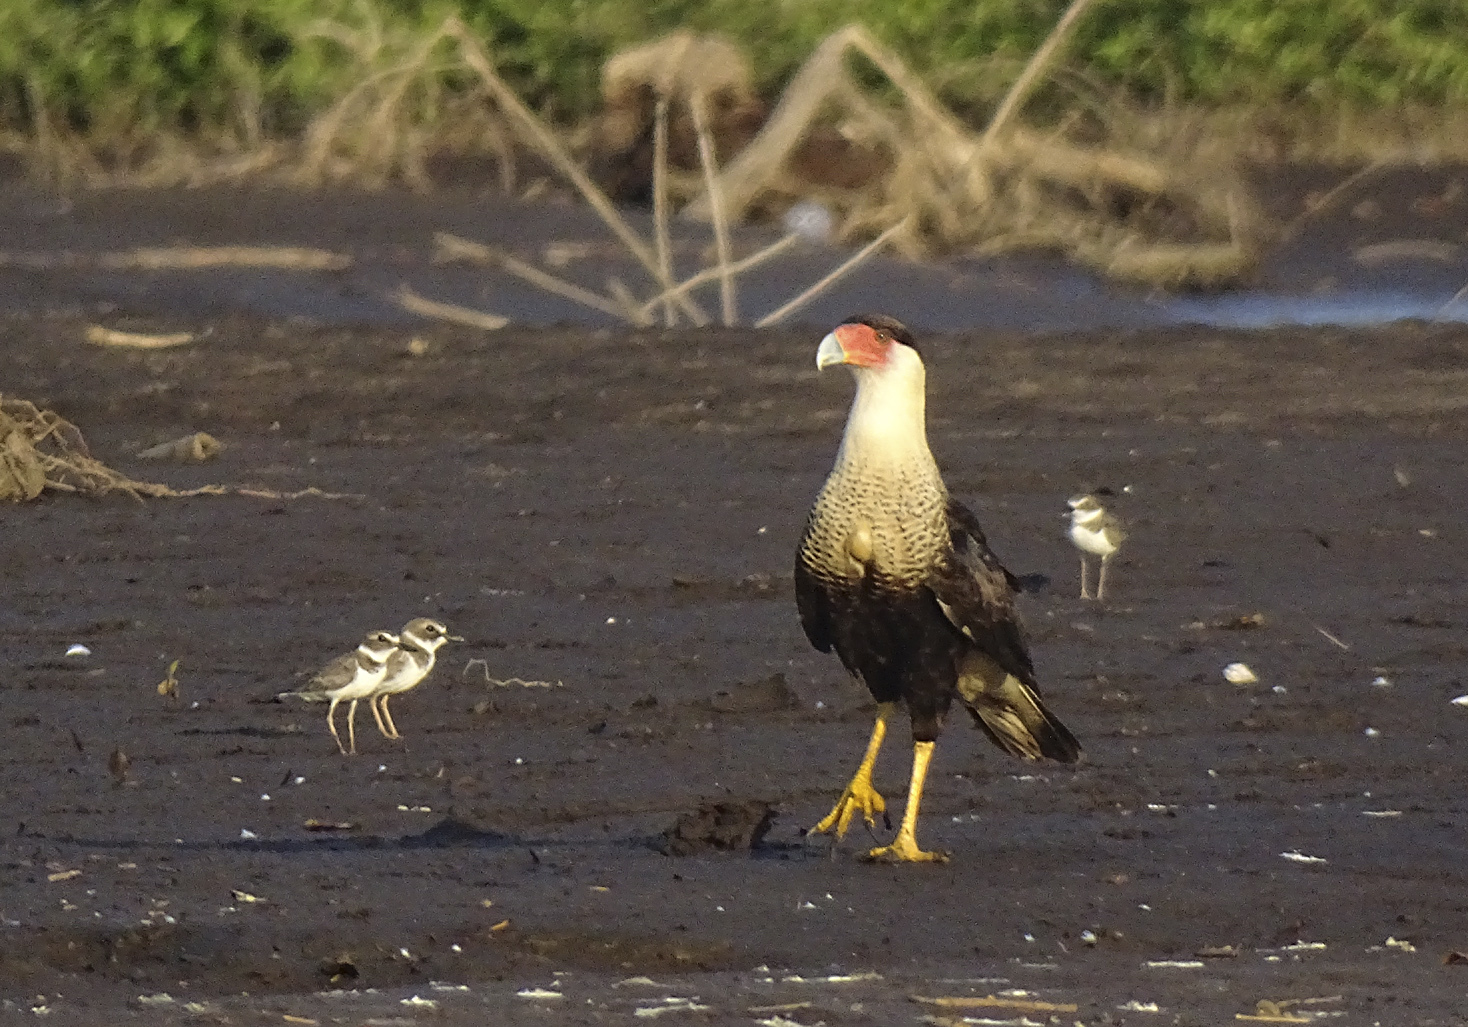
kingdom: Animalia
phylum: Chordata
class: Aves
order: Falconiformes
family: Falconidae
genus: Caracara
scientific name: Caracara plancus
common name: Southern caracara
